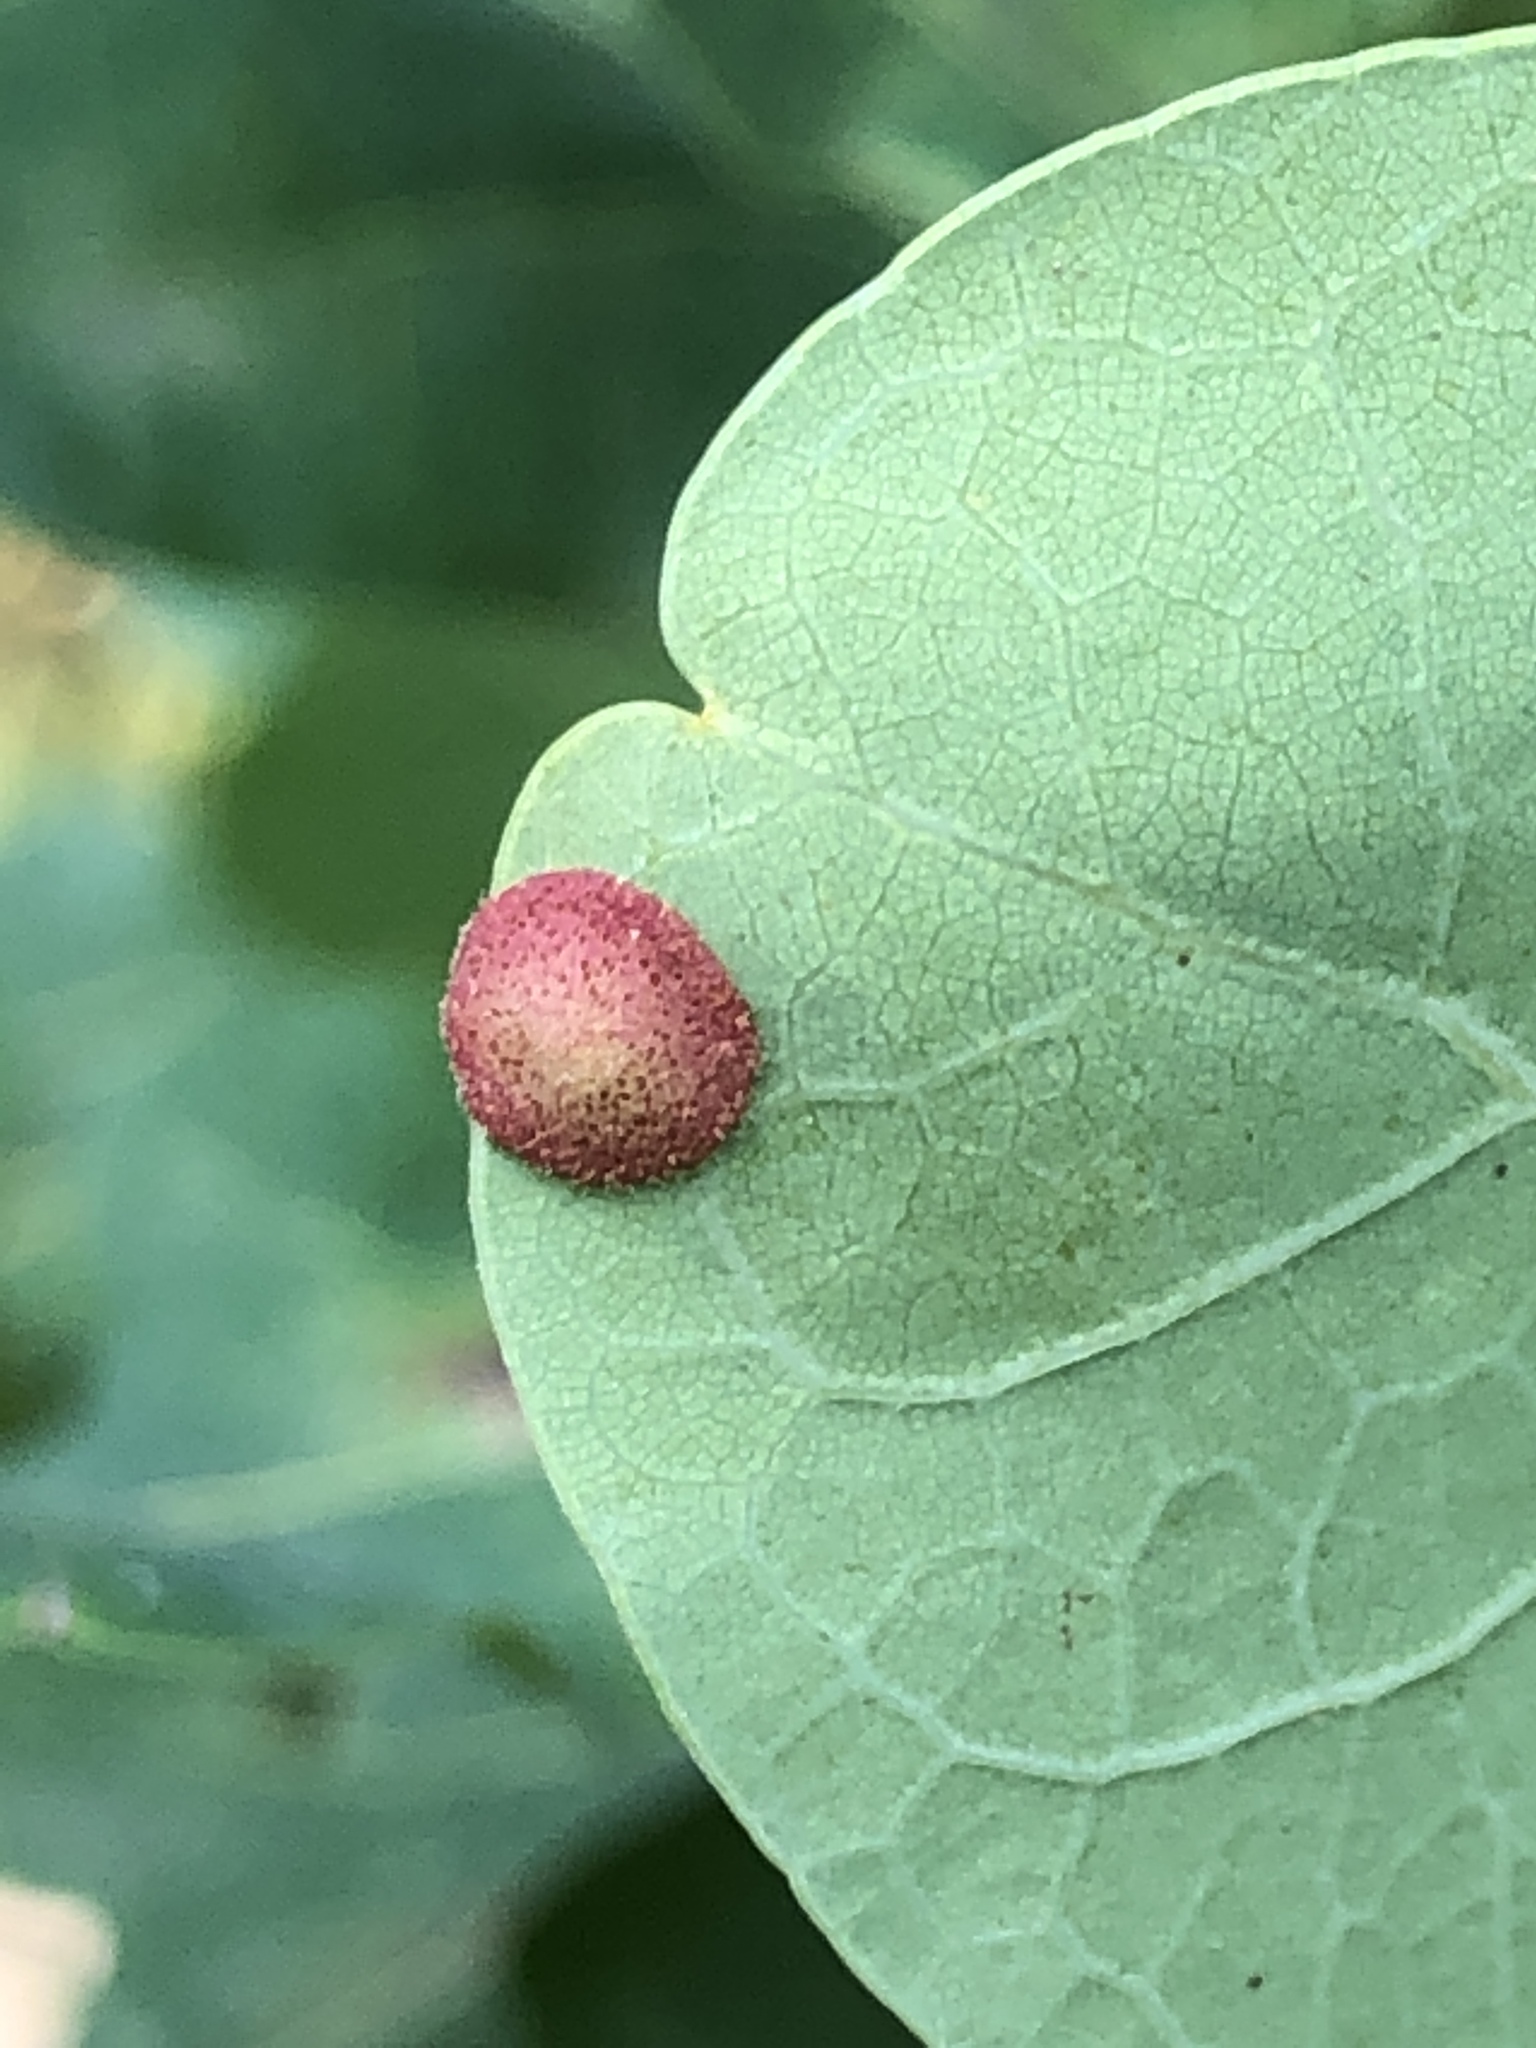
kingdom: Animalia
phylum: Arthropoda
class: Insecta
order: Hymenoptera
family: Cynipidae
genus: Neuroterus
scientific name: Neuroterus quercusbaccarum
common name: Common spangle gall
